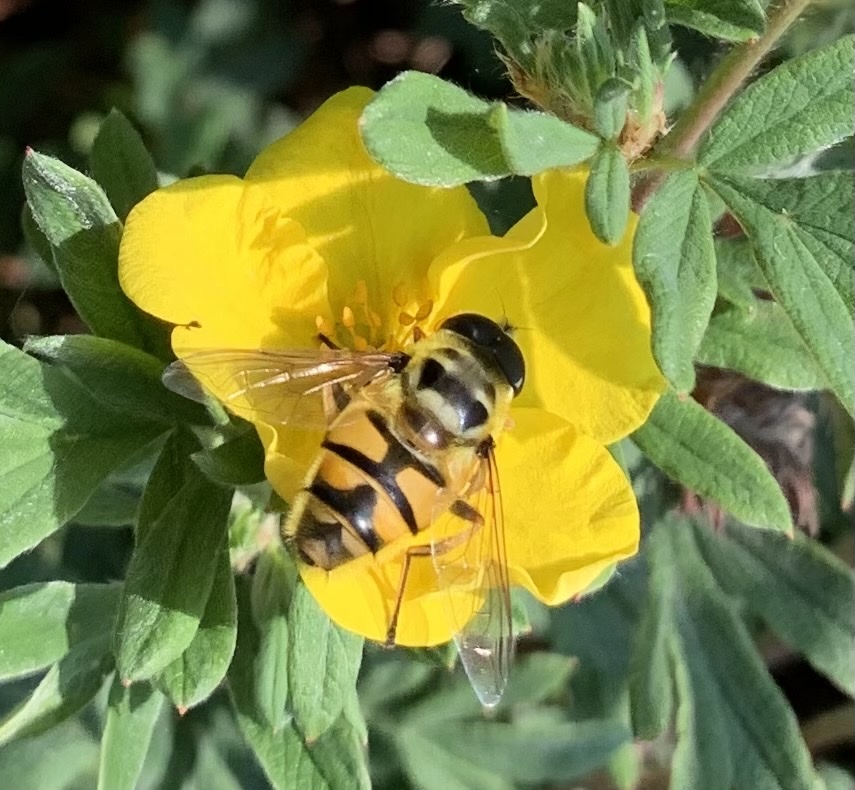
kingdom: Animalia
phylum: Arthropoda
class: Insecta
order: Diptera
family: Syrphidae
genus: Myathropa
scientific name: Myathropa florea
